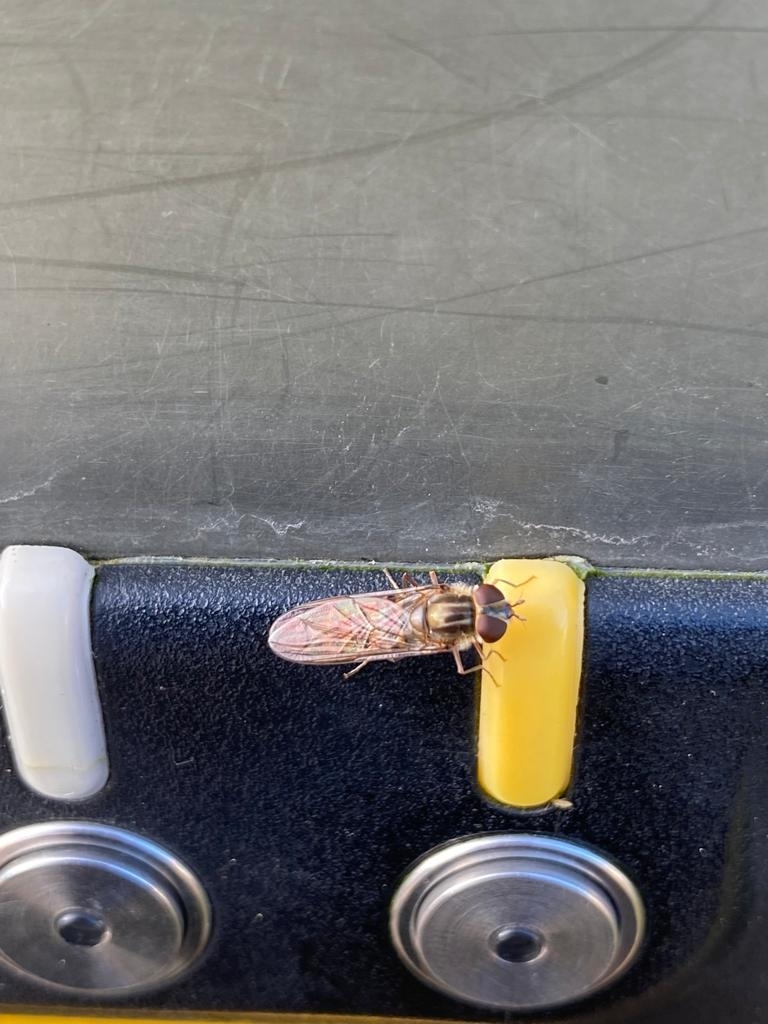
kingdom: Animalia
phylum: Arthropoda
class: Insecta
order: Diptera
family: Syrphidae
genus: Episyrphus
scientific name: Episyrphus balteatus
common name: Marmalade hoverfly
